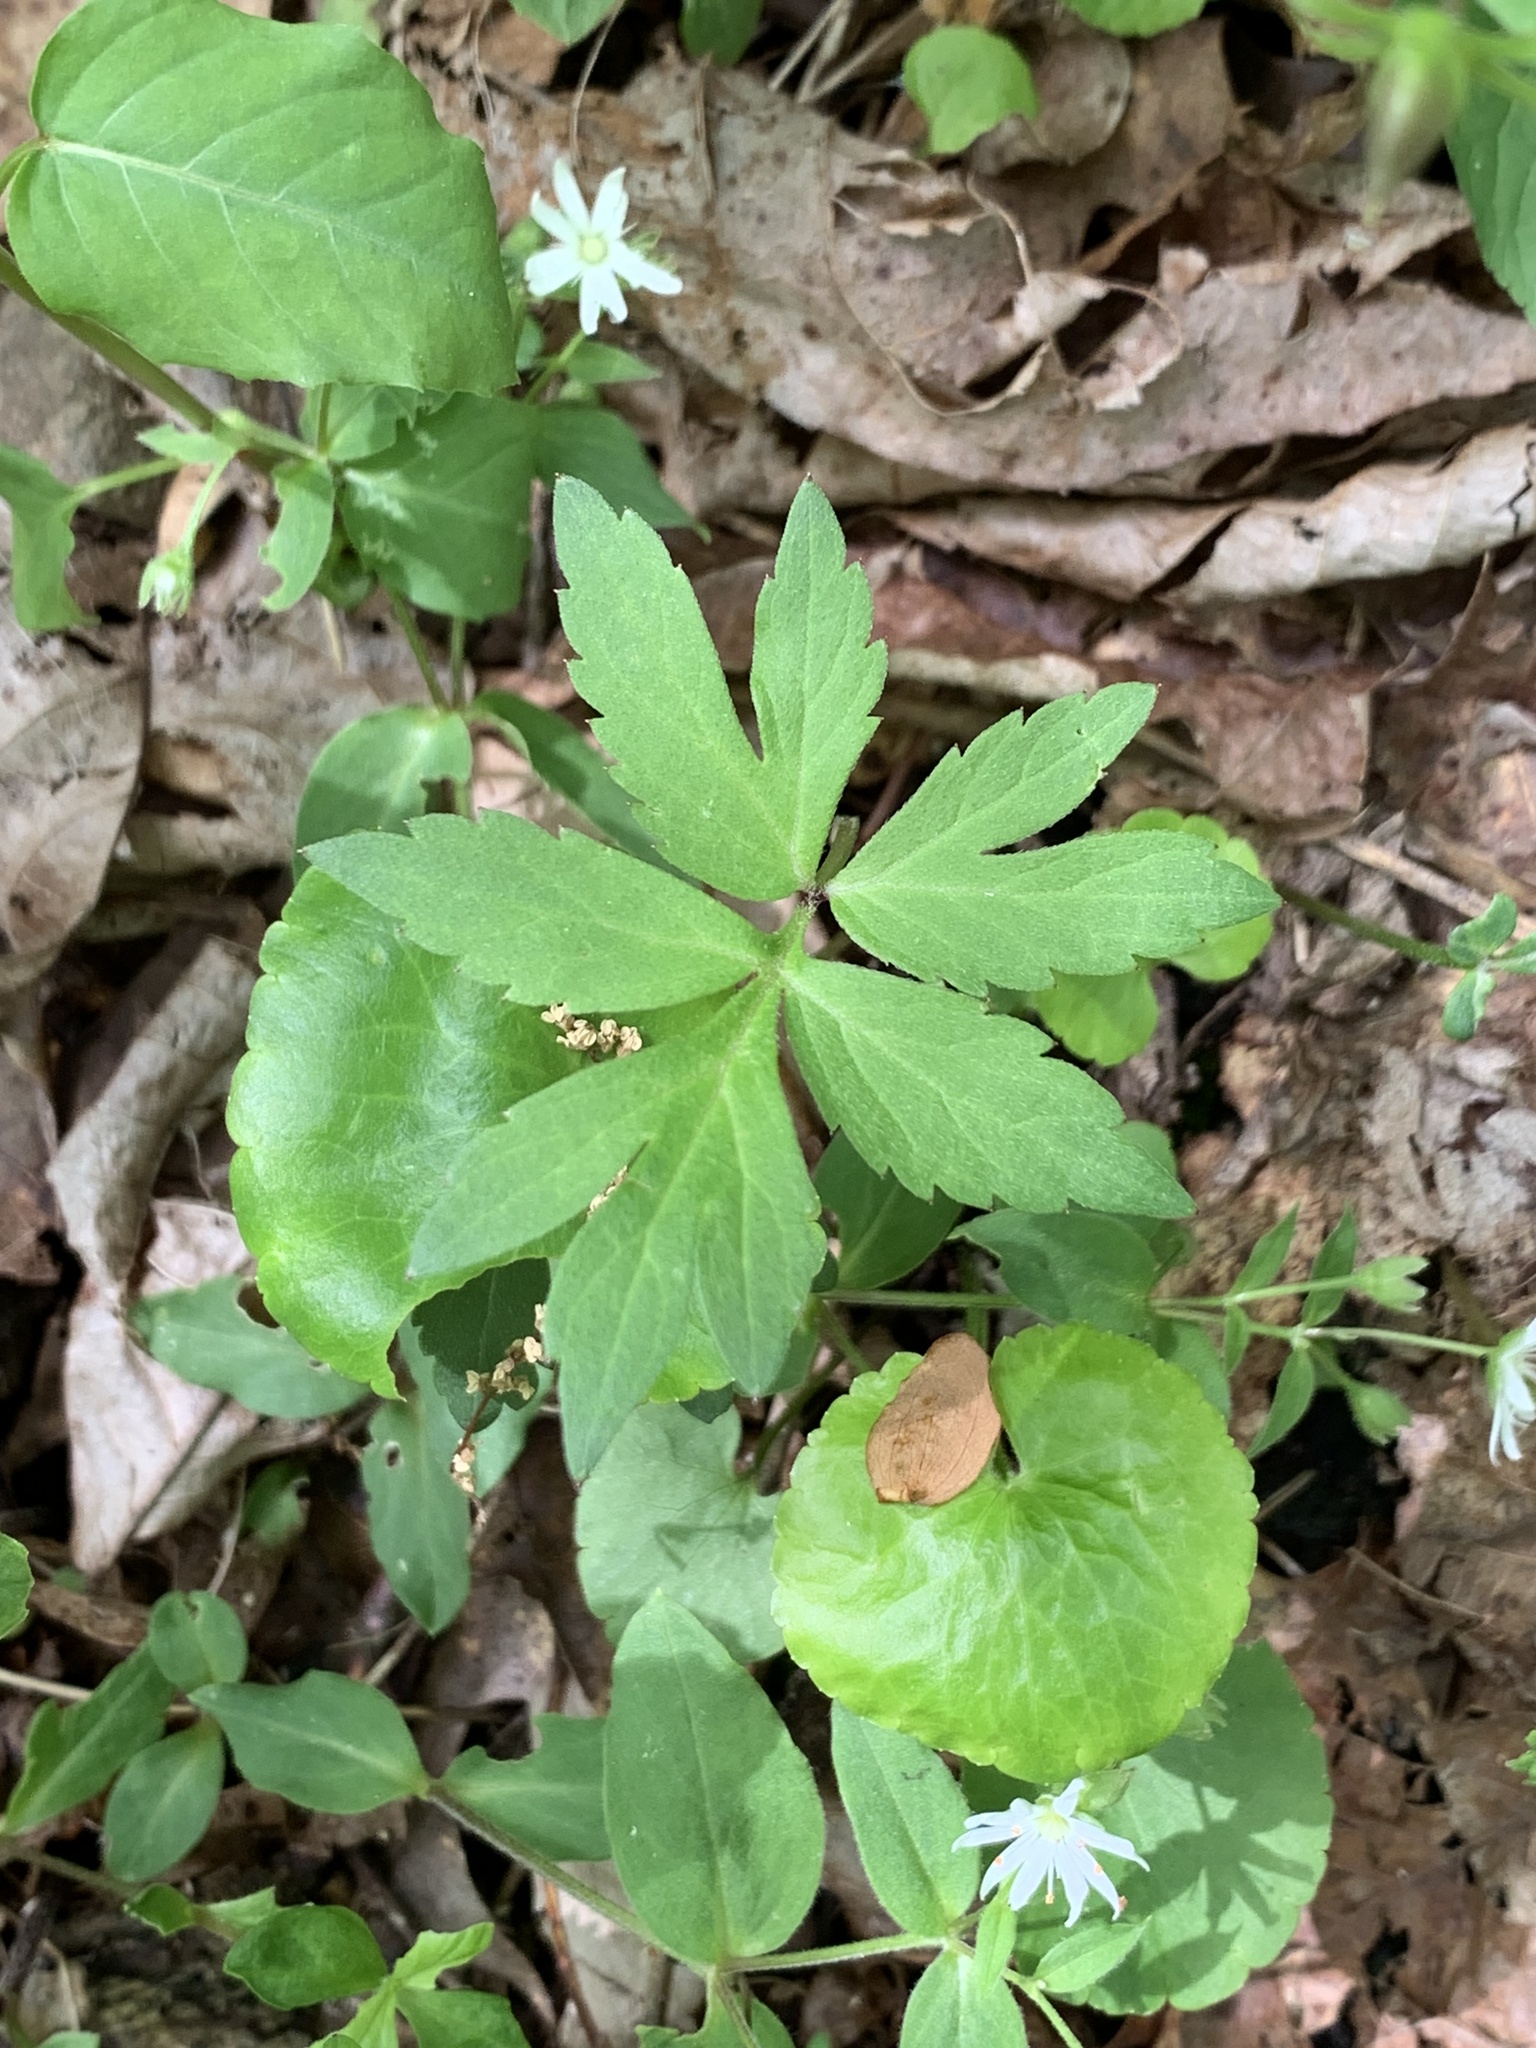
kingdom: Plantae
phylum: Tracheophyta
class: Magnoliopsida
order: Boraginales
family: Hydrophyllaceae
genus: Hydrophyllum
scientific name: Hydrophyllum virginianum
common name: Virginia waterleaf
